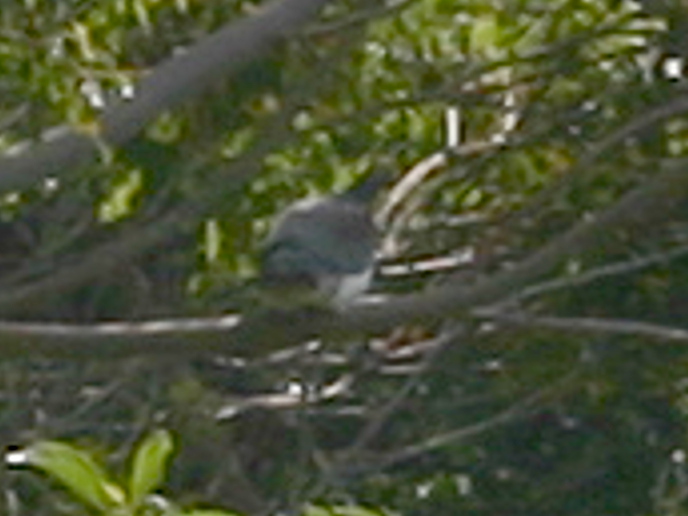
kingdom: Animalia
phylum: Chordata
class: Aves
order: Columbiformes
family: Columbidae
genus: Hemiphaga
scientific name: Hemiphaga novaeseelandiae
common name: New zealand pigeon
